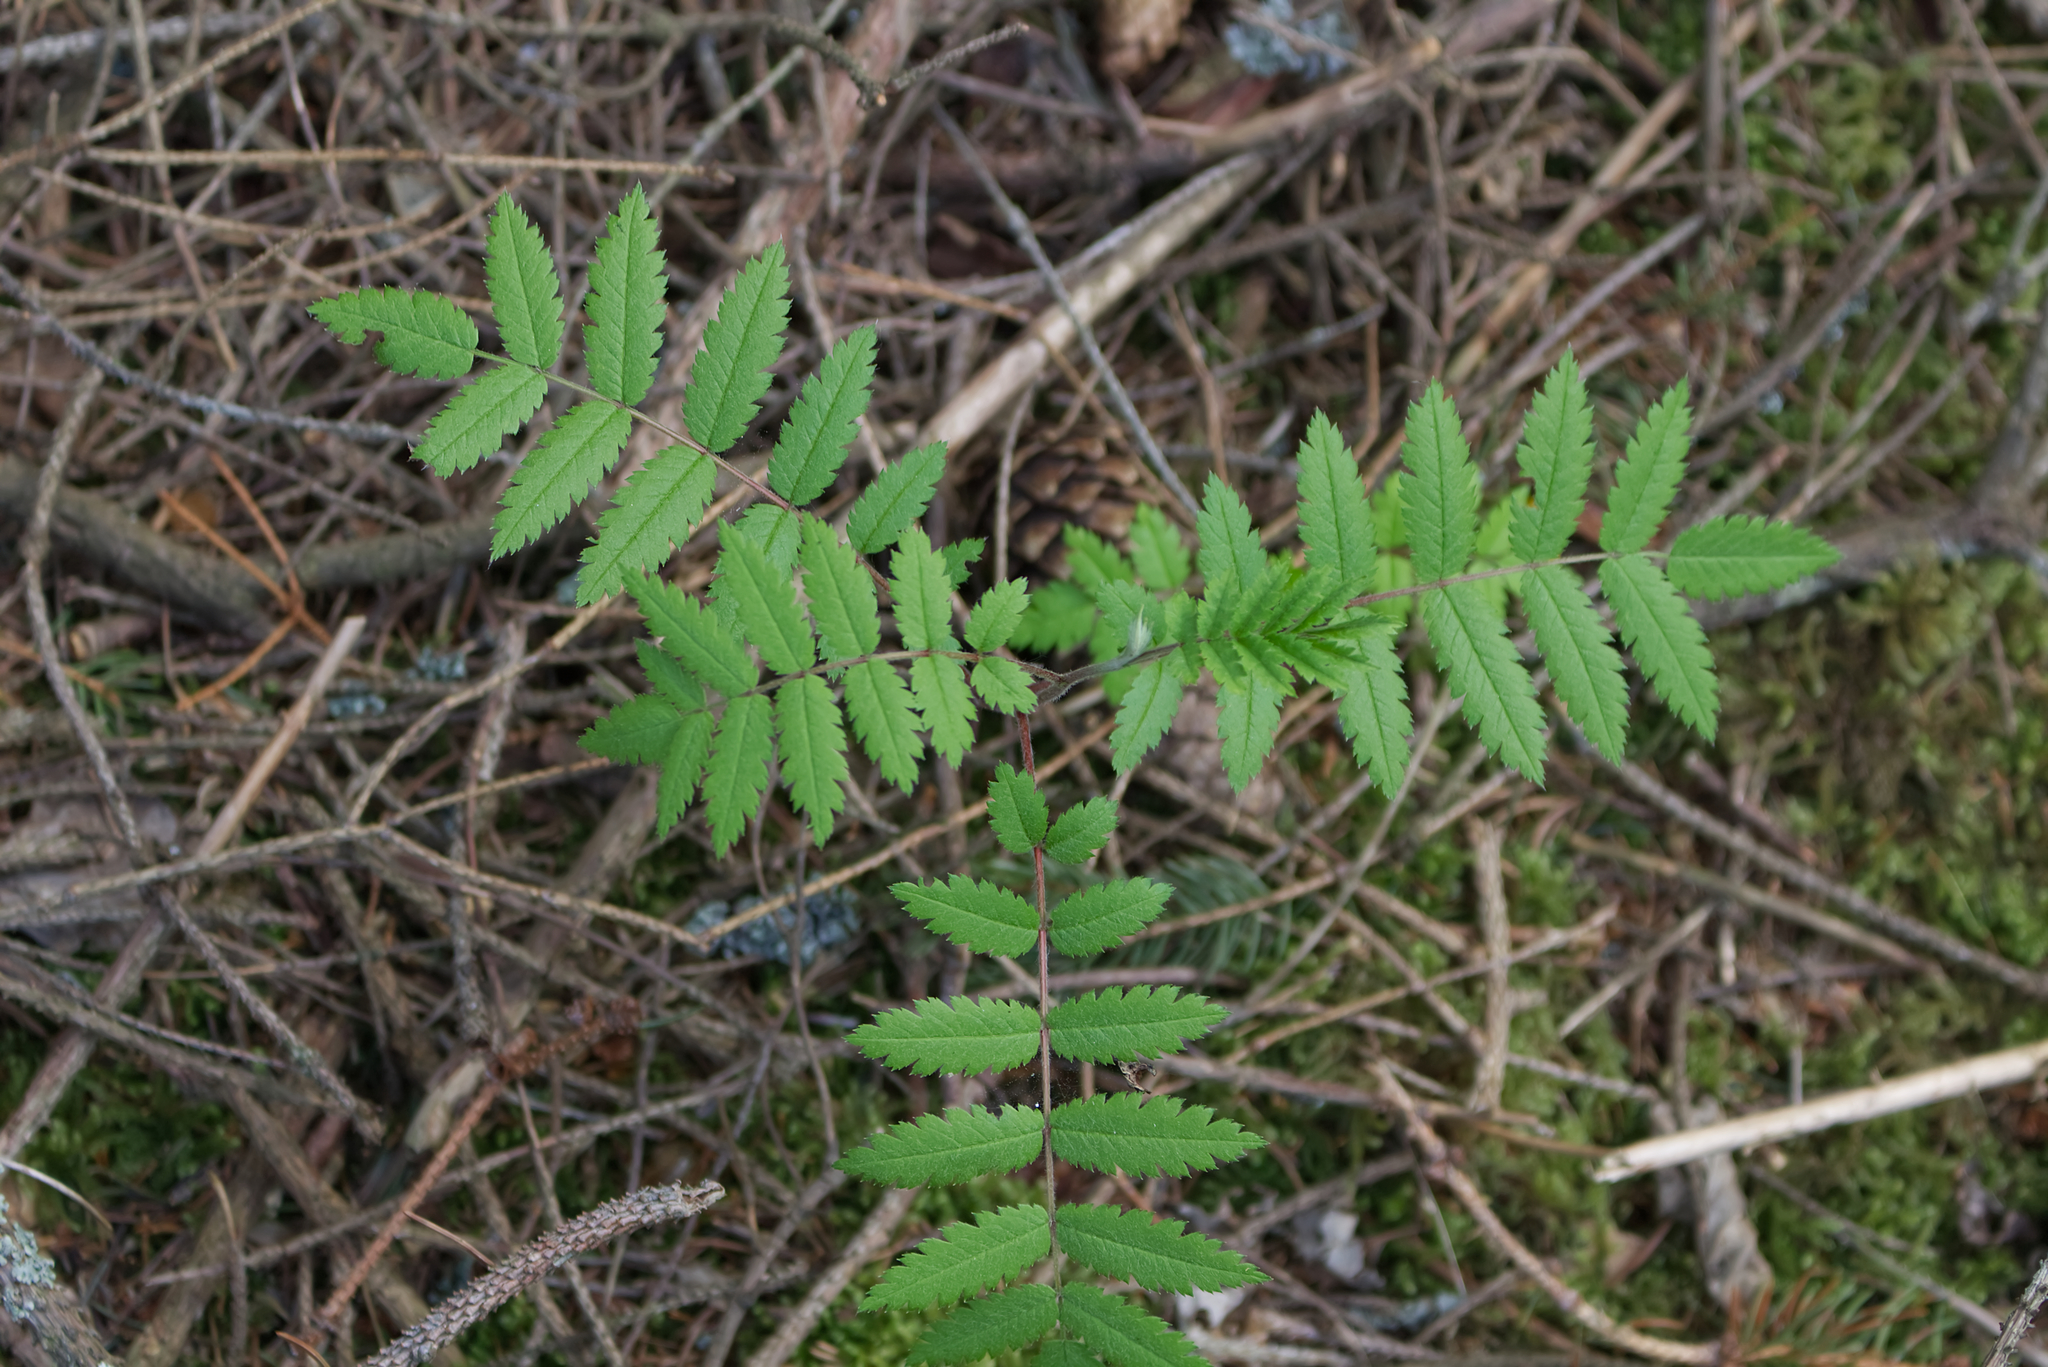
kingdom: Plantae
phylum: Tracheophyta
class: Magnoliopsida
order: Rosales
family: Rosaceae
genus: Sorbus
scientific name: Sorbus aucuparia
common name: Rowan
